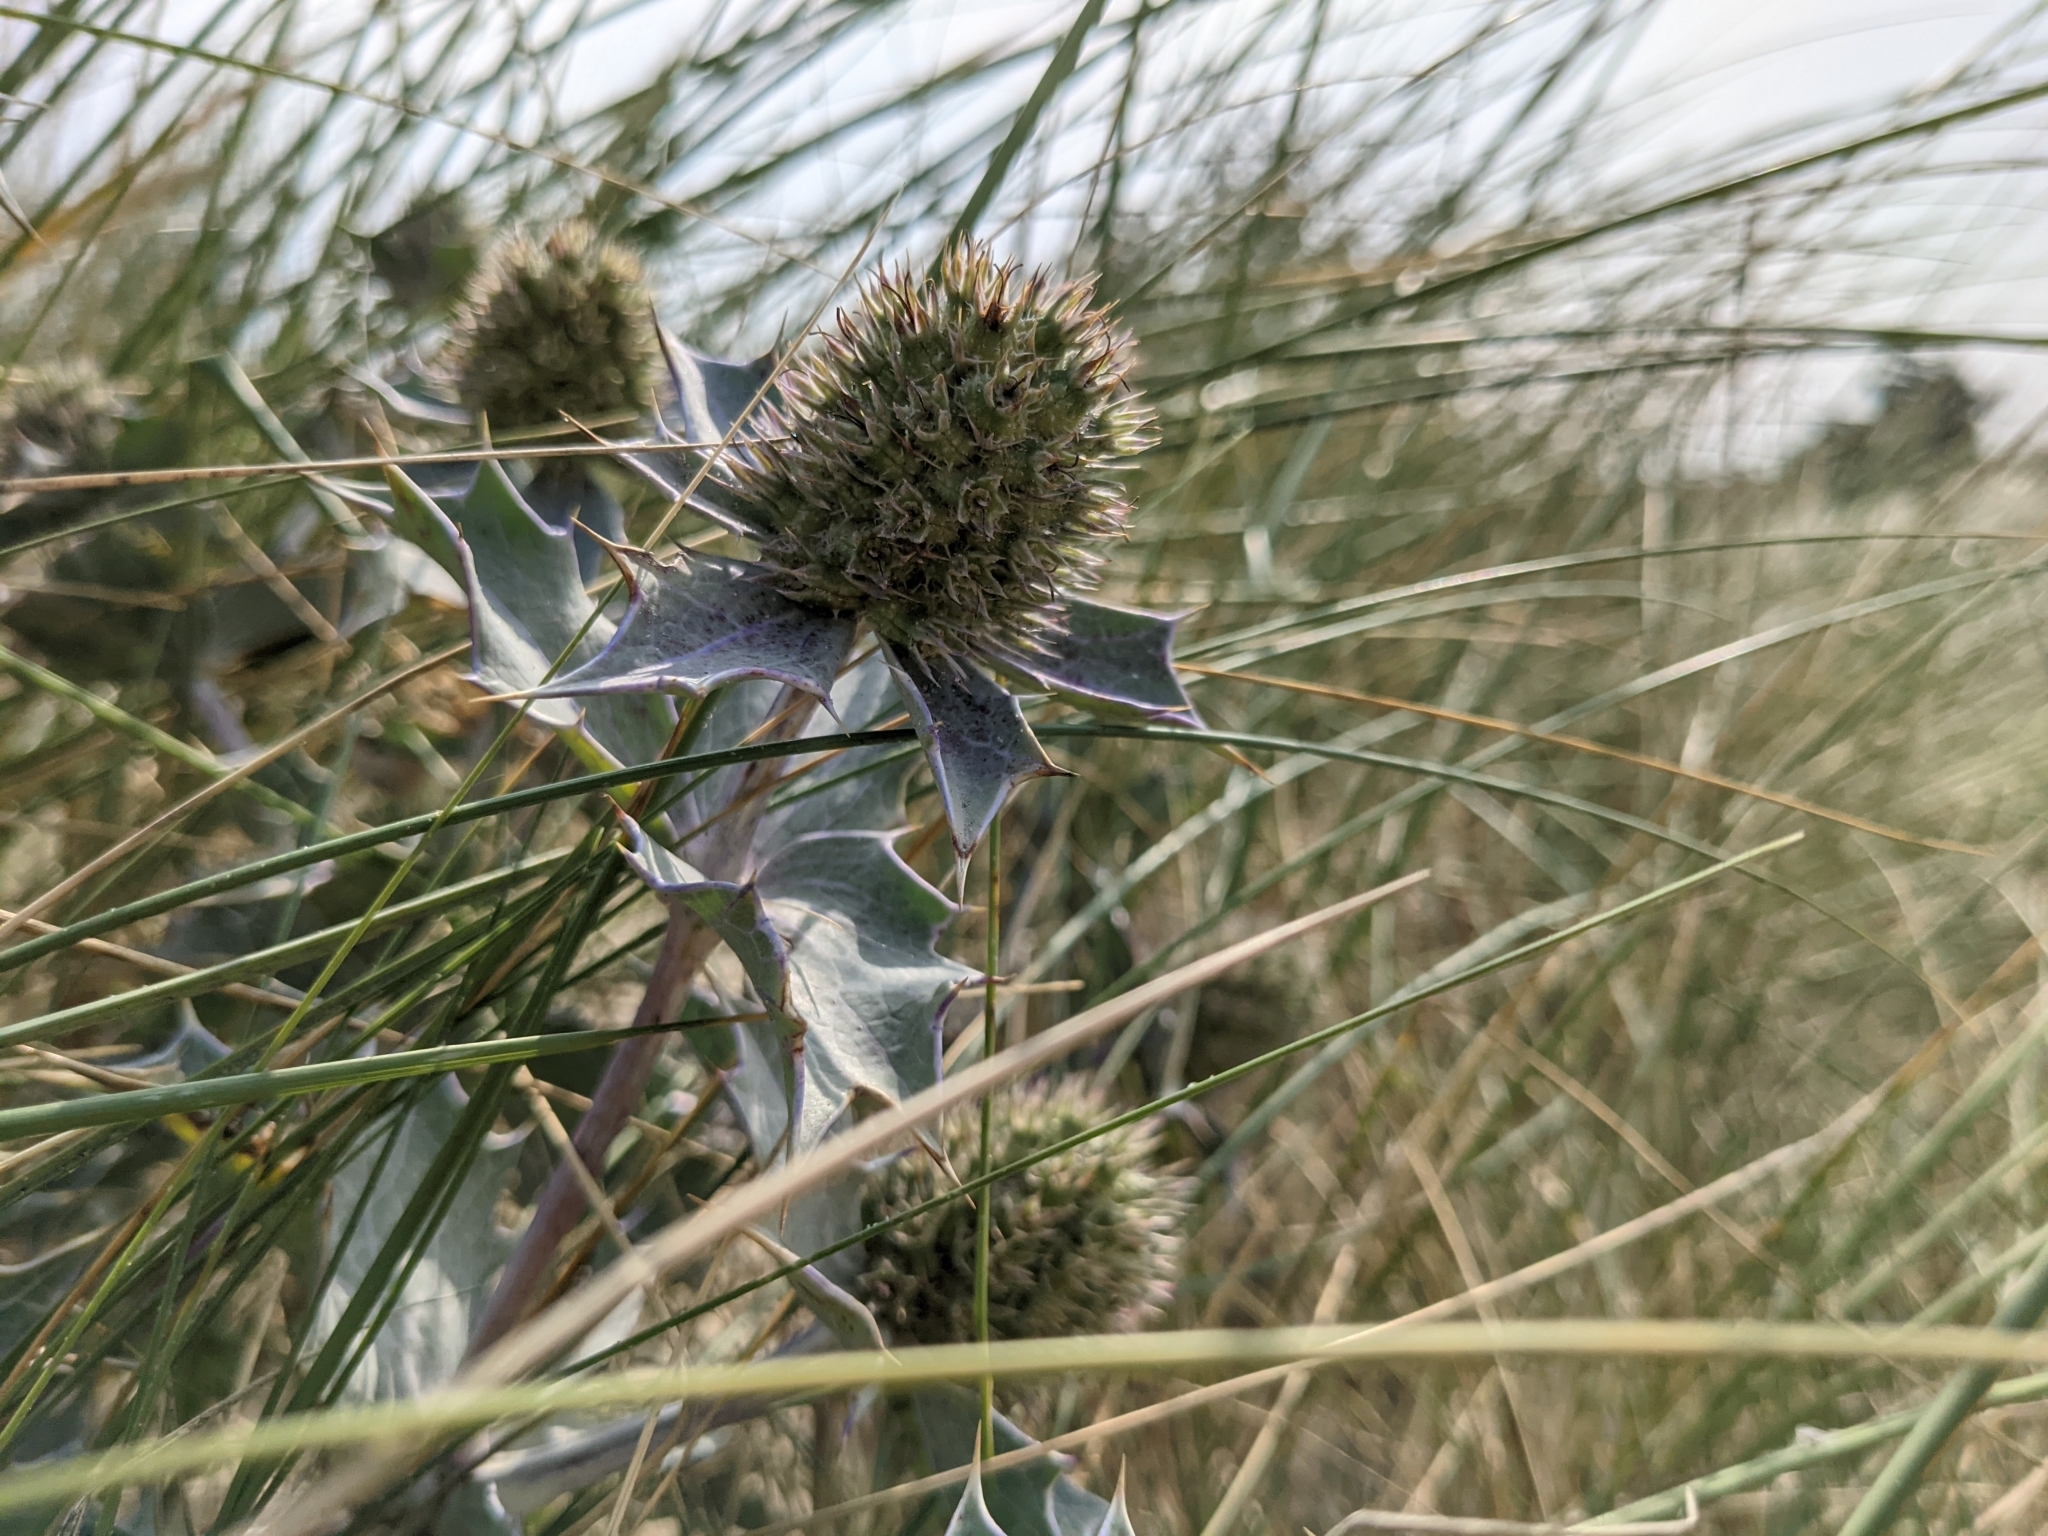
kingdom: Plantae
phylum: Tracheophyta
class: Magnoliopsida
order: Apiales
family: Apiaceae
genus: Eryngium
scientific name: Eryngium maritimum
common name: Sea-holly
